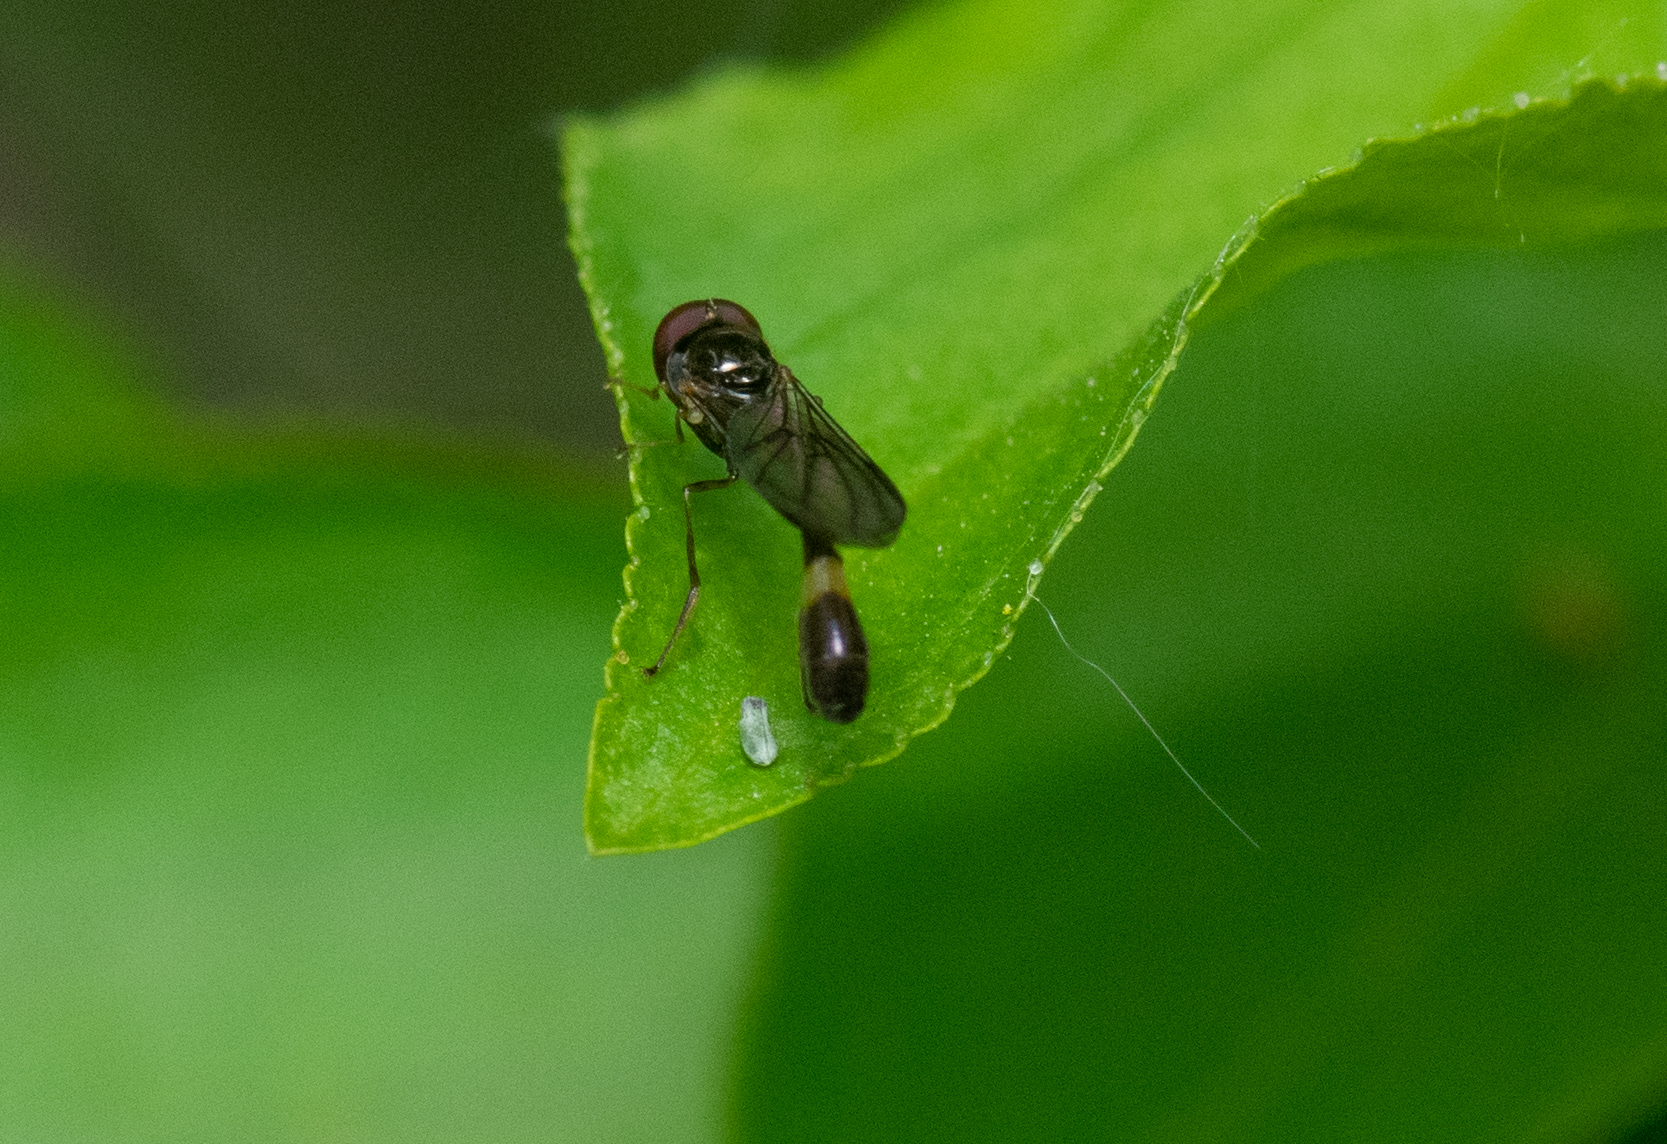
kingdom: Animalia
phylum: Arthropoda
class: Insecta
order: Diptera
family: Syrphidae
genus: Baccha
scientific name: Baccha elongata
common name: Common dainty
